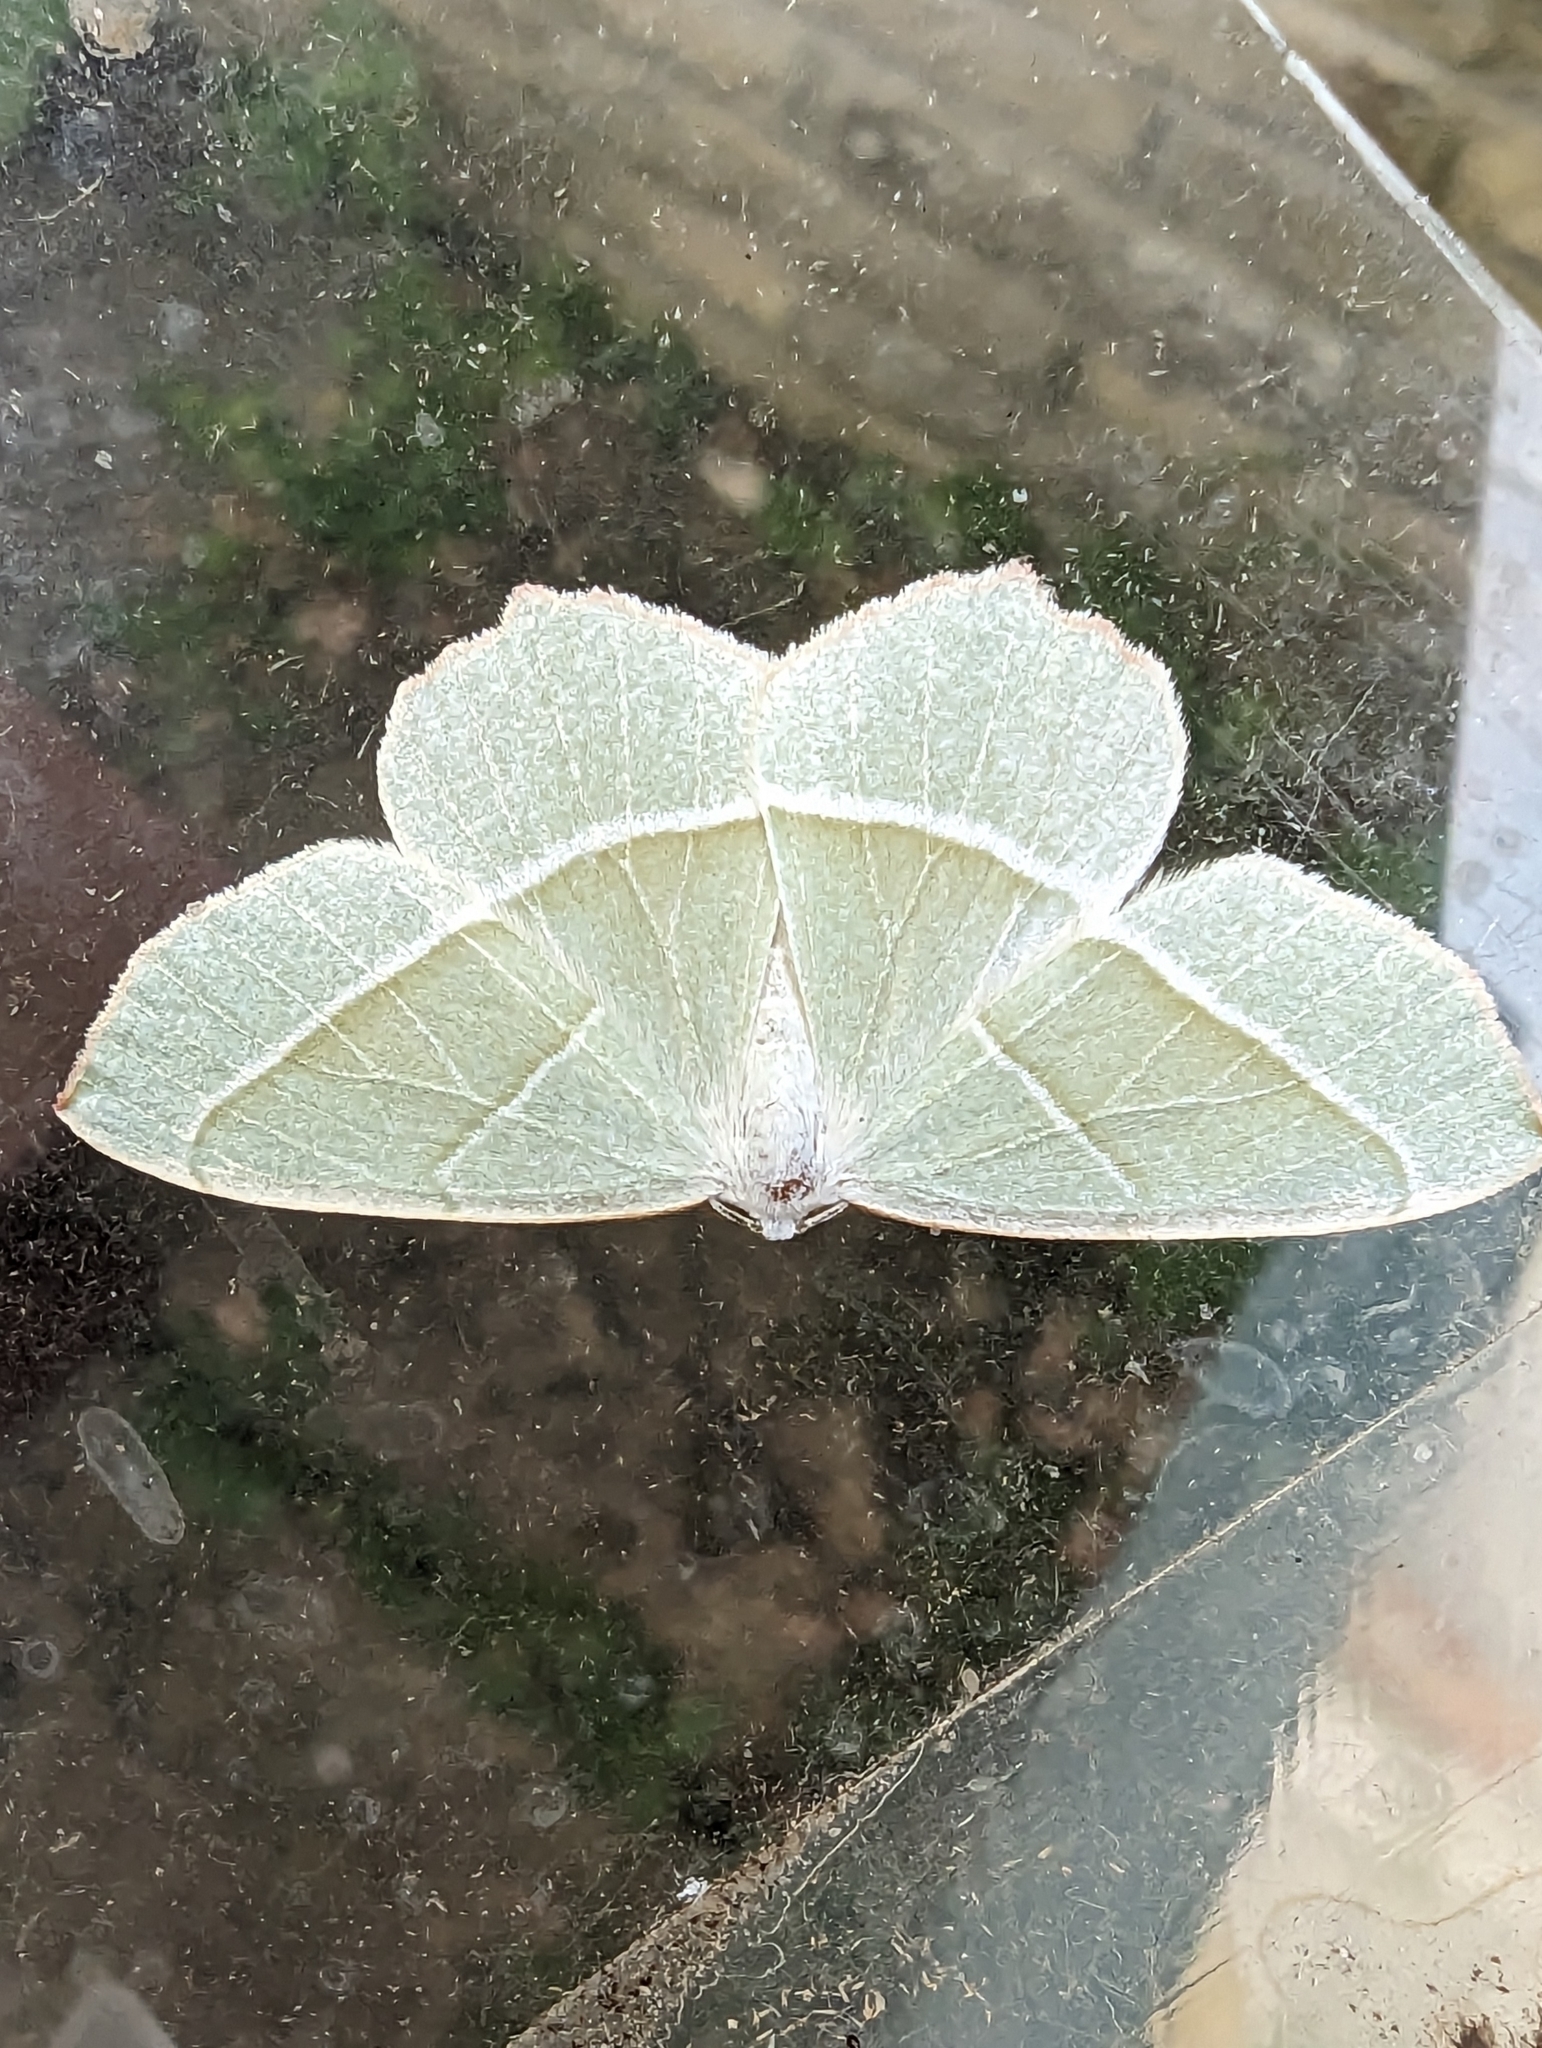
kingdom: Animalia
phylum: Arthropoda
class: Insecta
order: Lepidoptera
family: Geometridae
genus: Campaea
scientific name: Campaea margaritaria
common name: Light emerald
